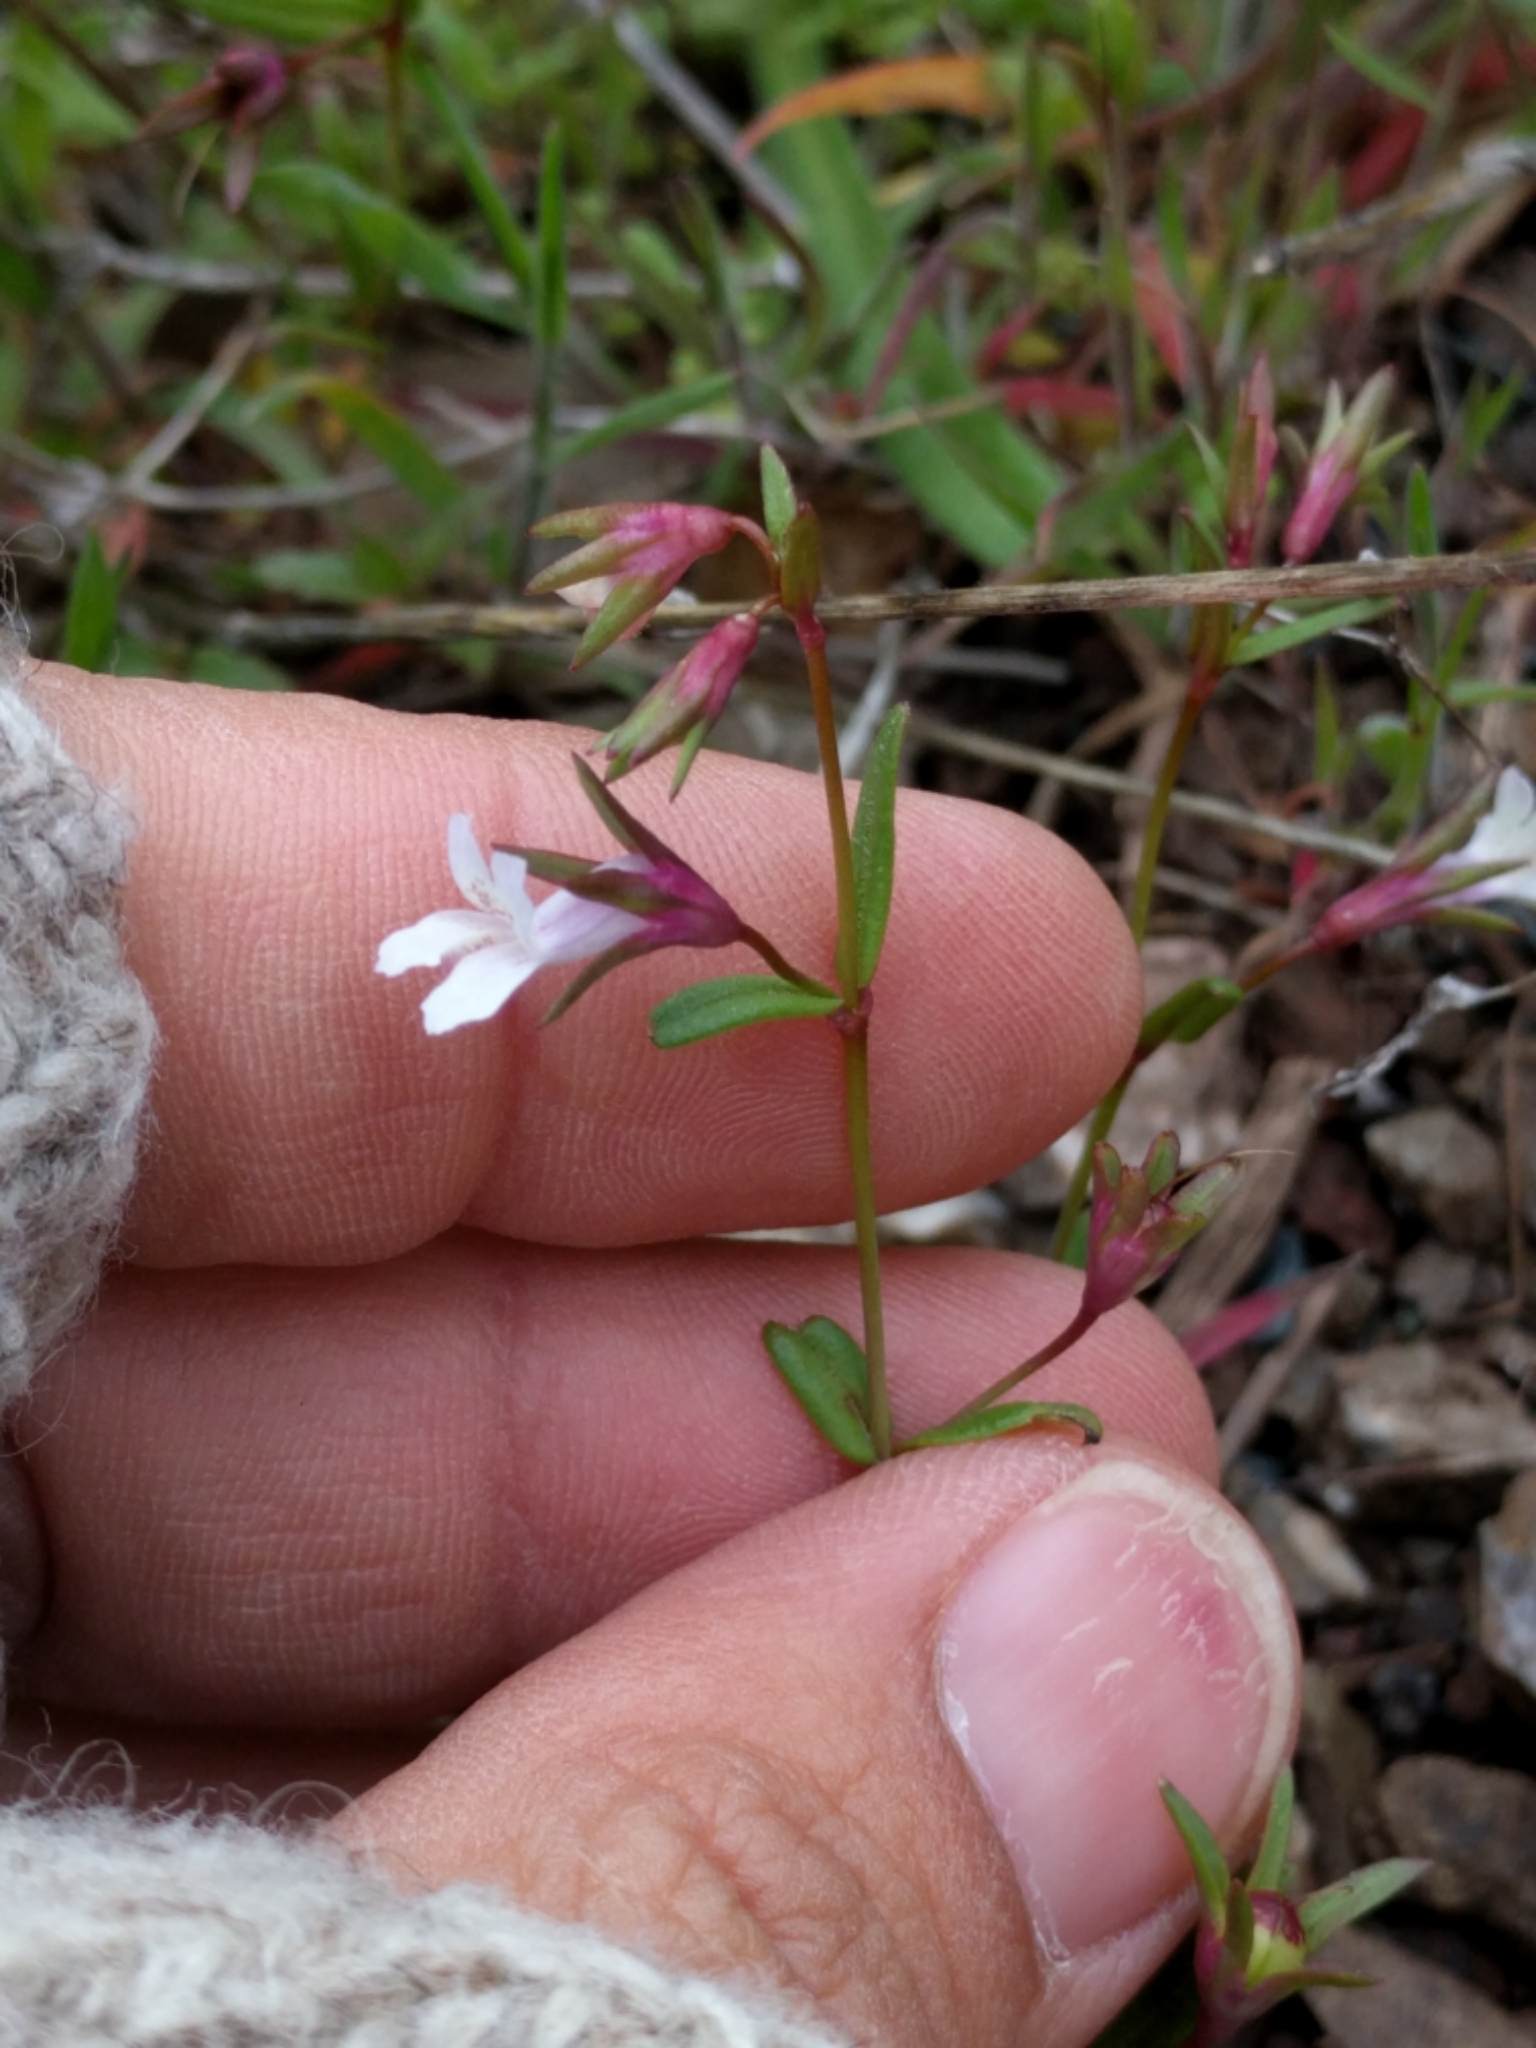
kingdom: Plantae
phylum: Tracheophyta
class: Magnoliopsida
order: Lamiales
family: Plantaginaceae
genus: Collinsia
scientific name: Collinsia sparsiflora
